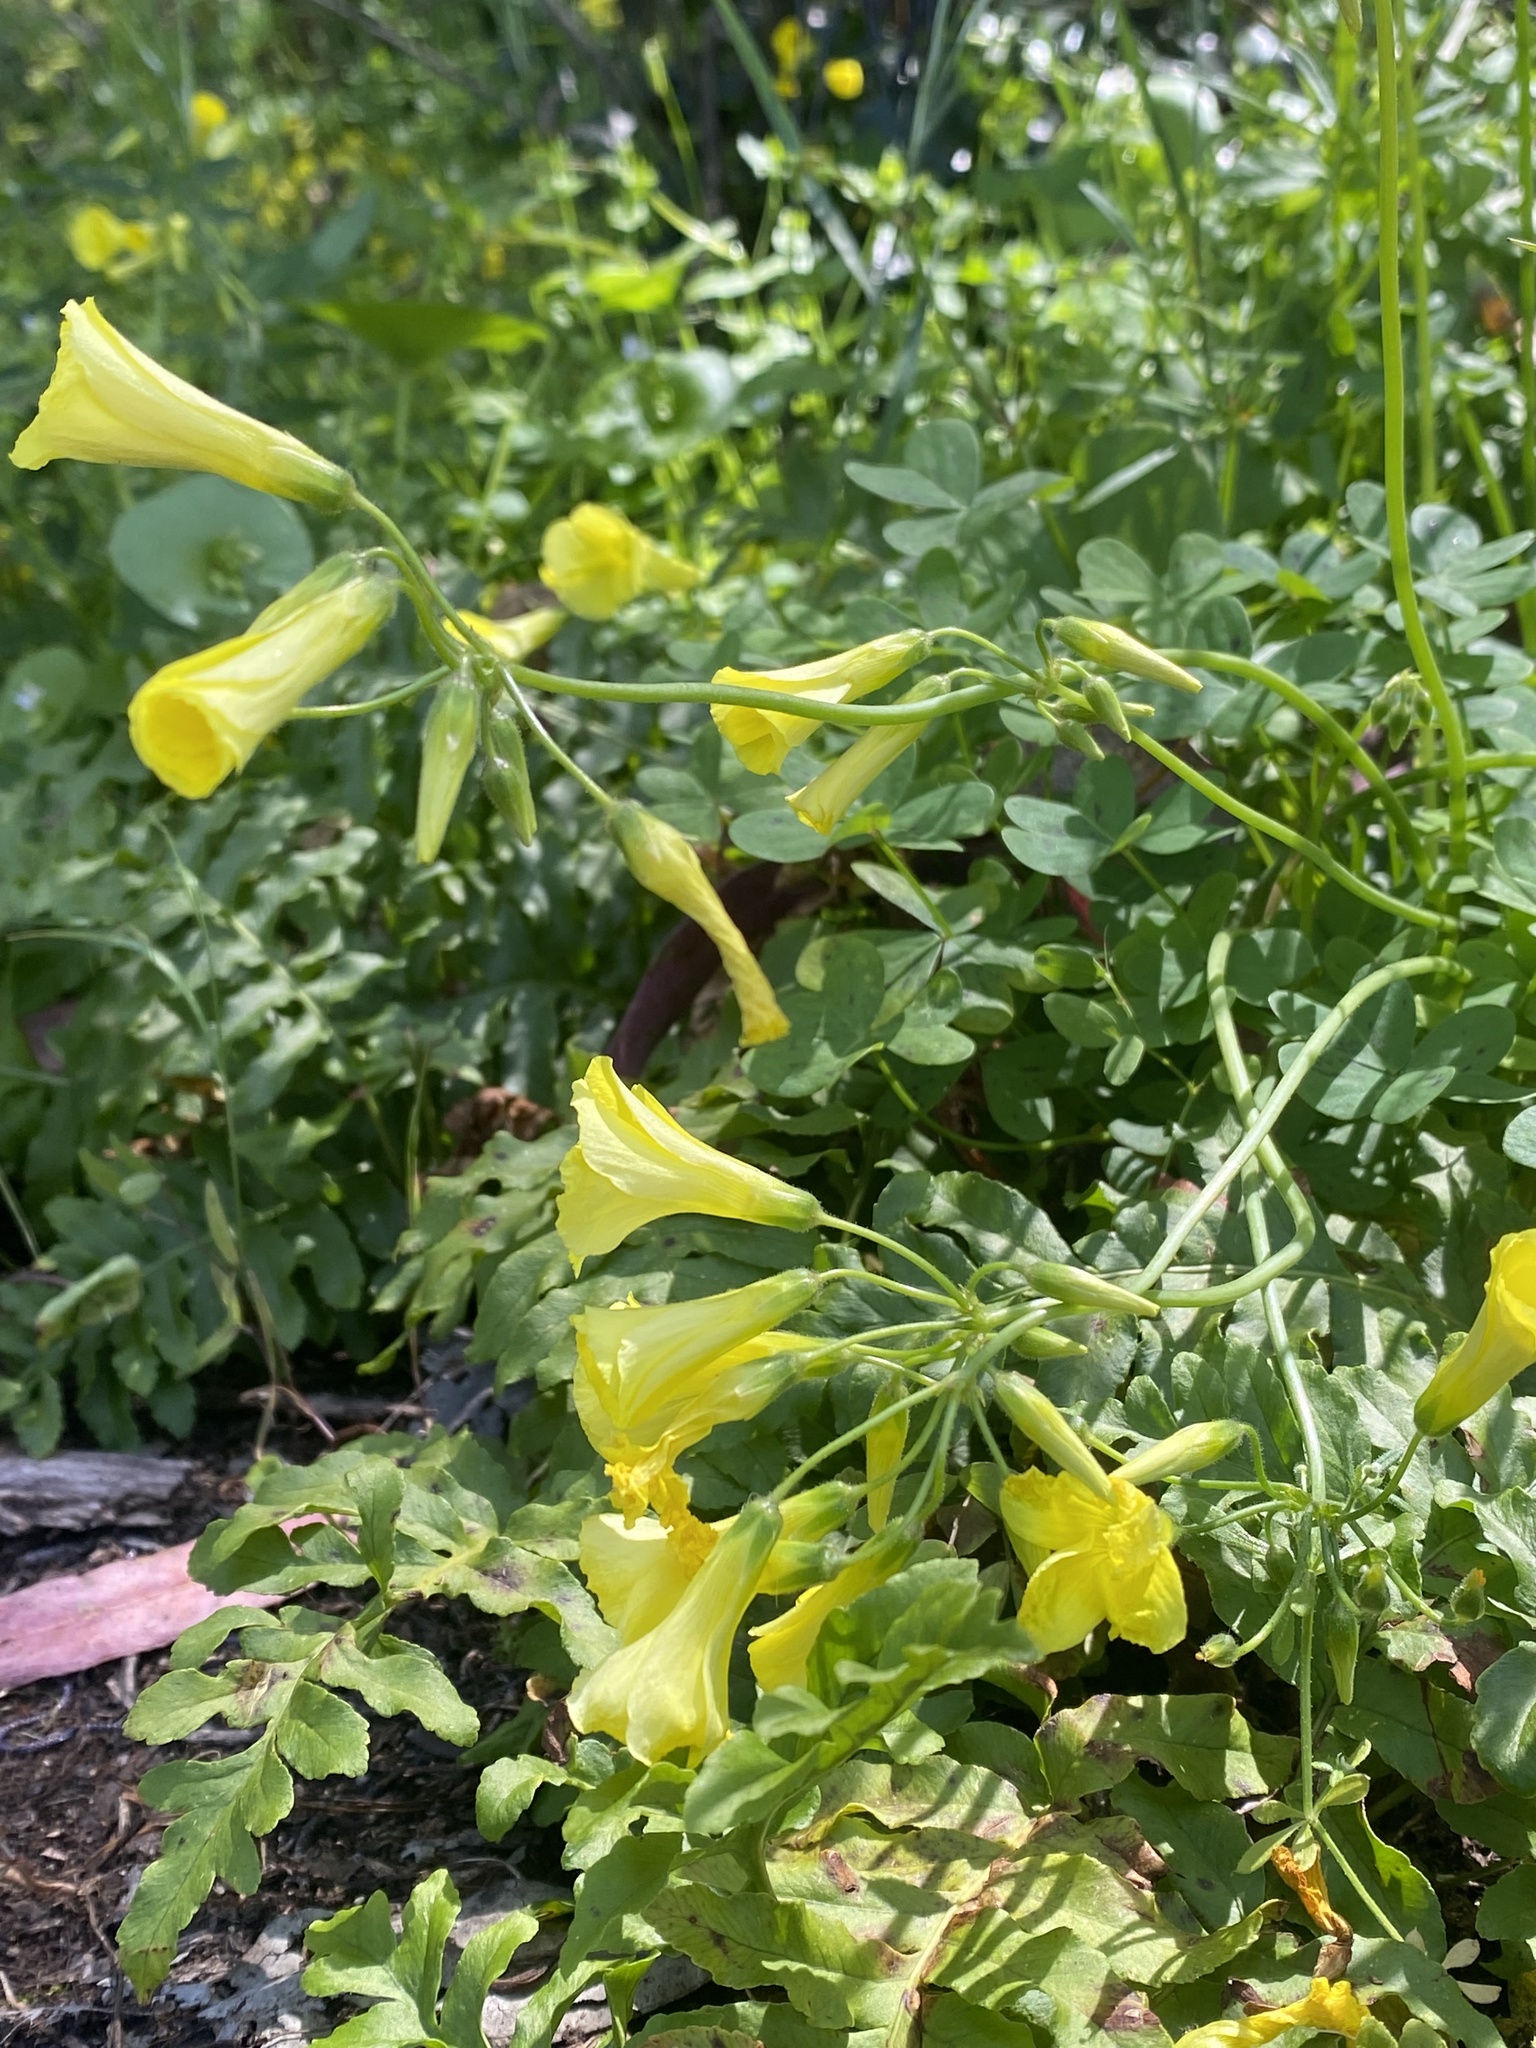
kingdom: Plantae
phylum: Tracheophyta
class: Magnoliopsida
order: Oxalidales
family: Oxalidaceae
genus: Oxalis
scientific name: Oxalis pes-caprae
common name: Bermuda-buttercup
